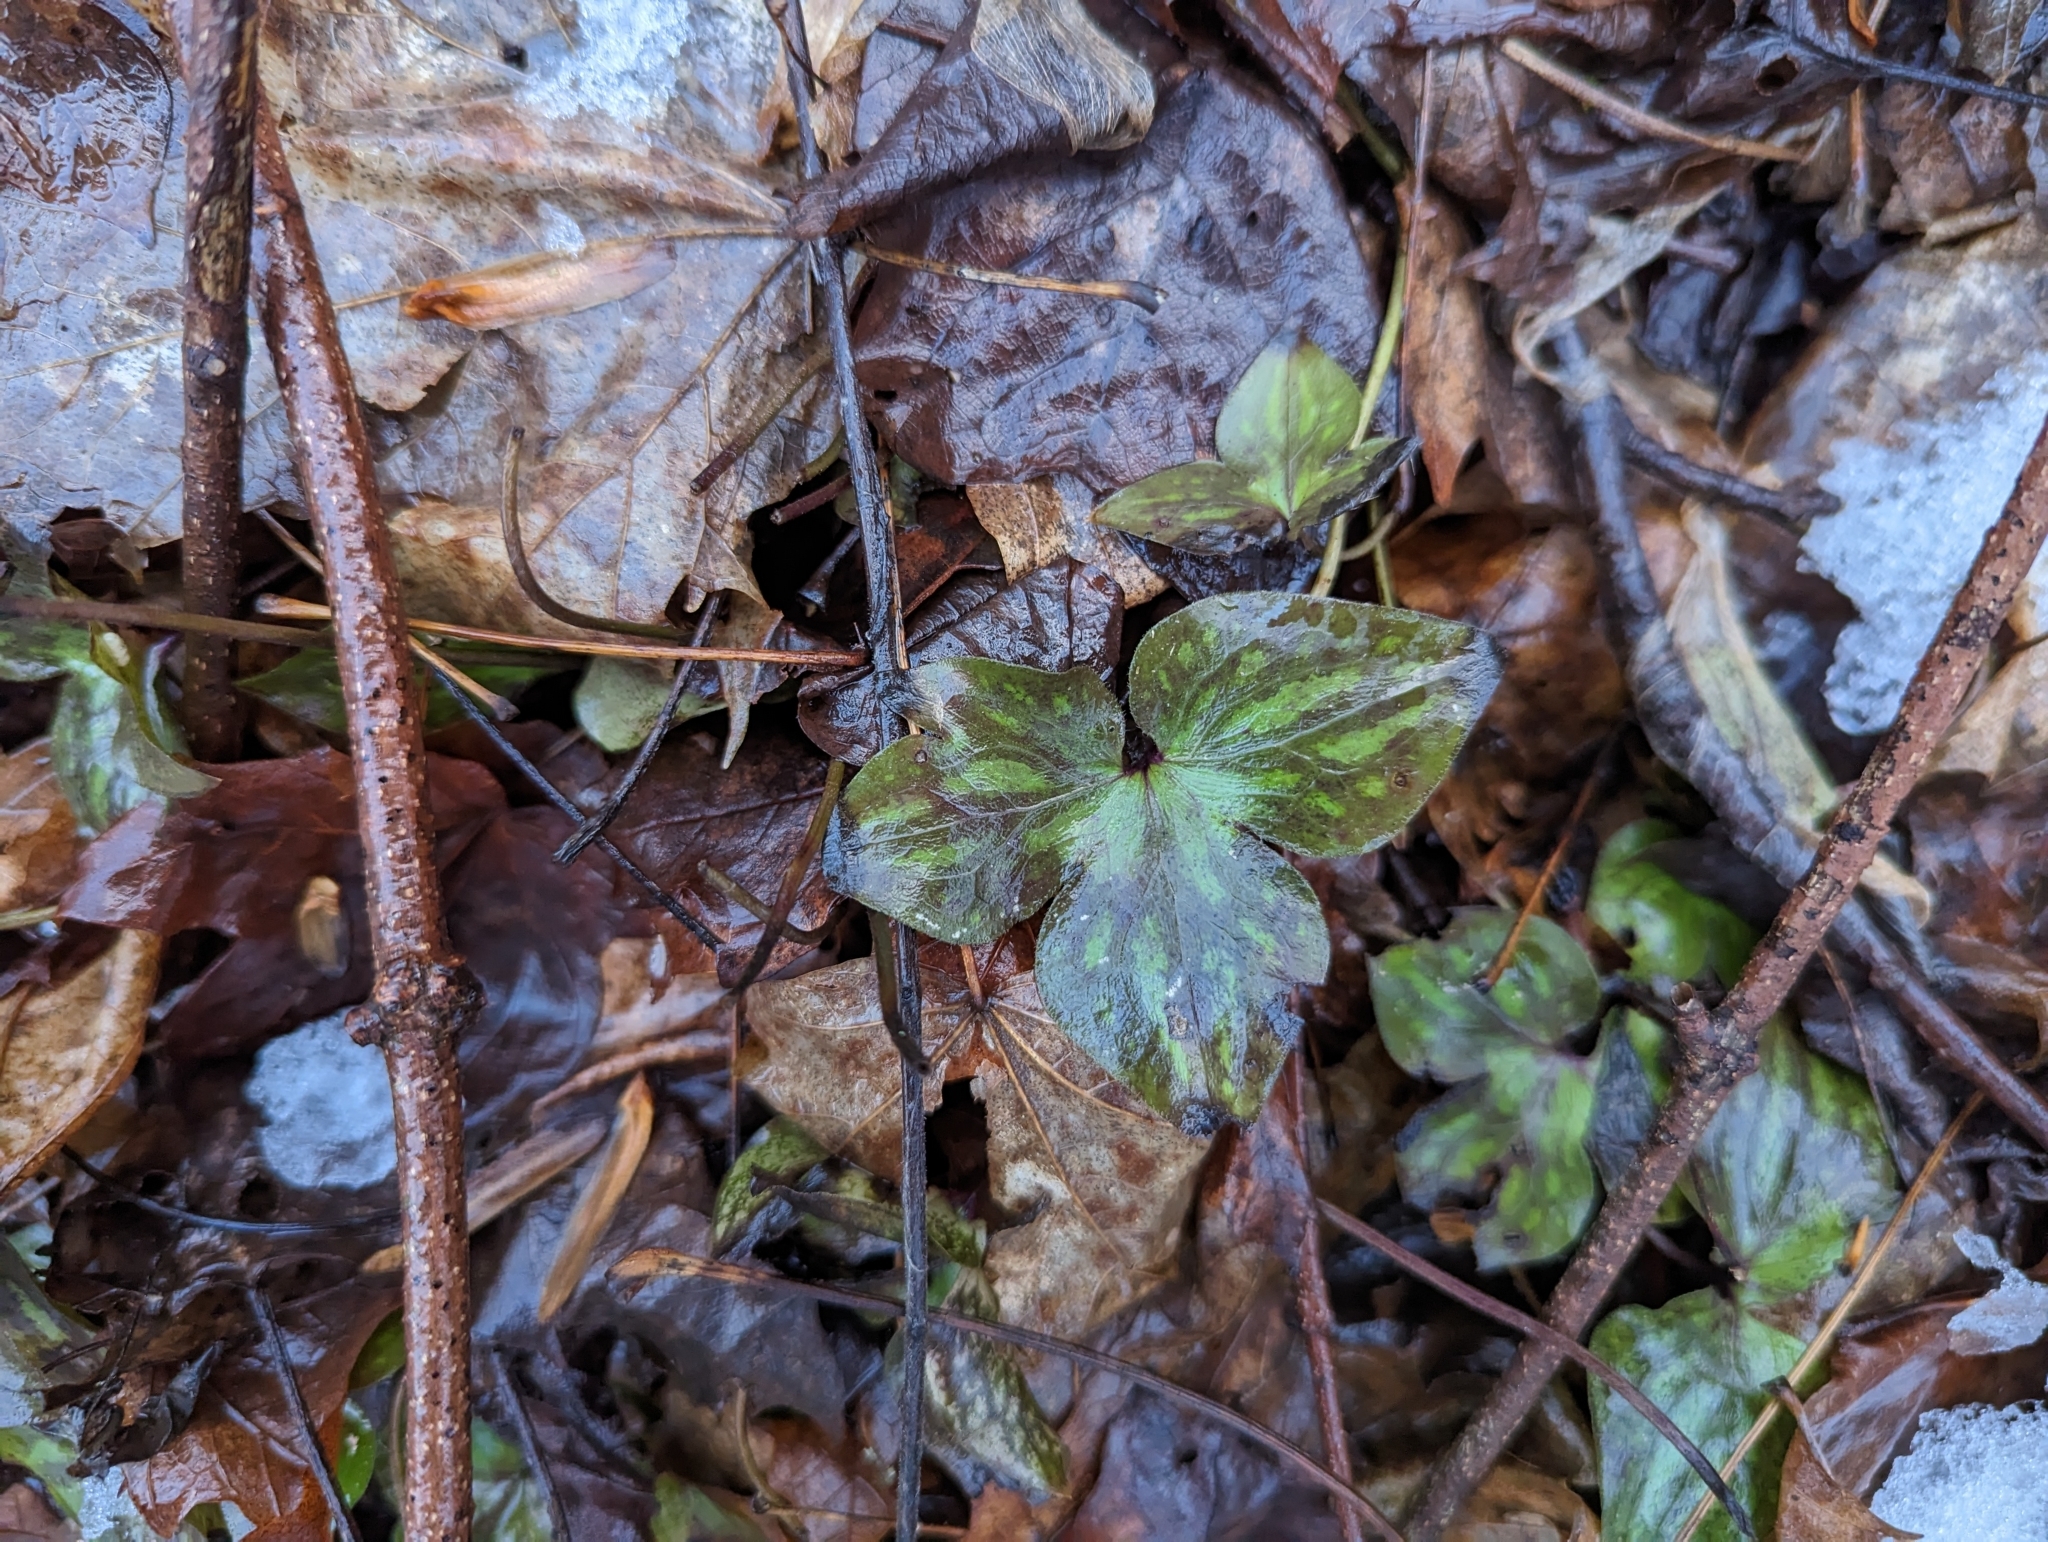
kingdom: Plantae
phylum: Tracheophyta
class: Magnoliopsida
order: Ranunculales
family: Ranunculaceae
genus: Hepatica
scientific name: Hepatica acutiloba
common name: Sharp-lobed hepatica
